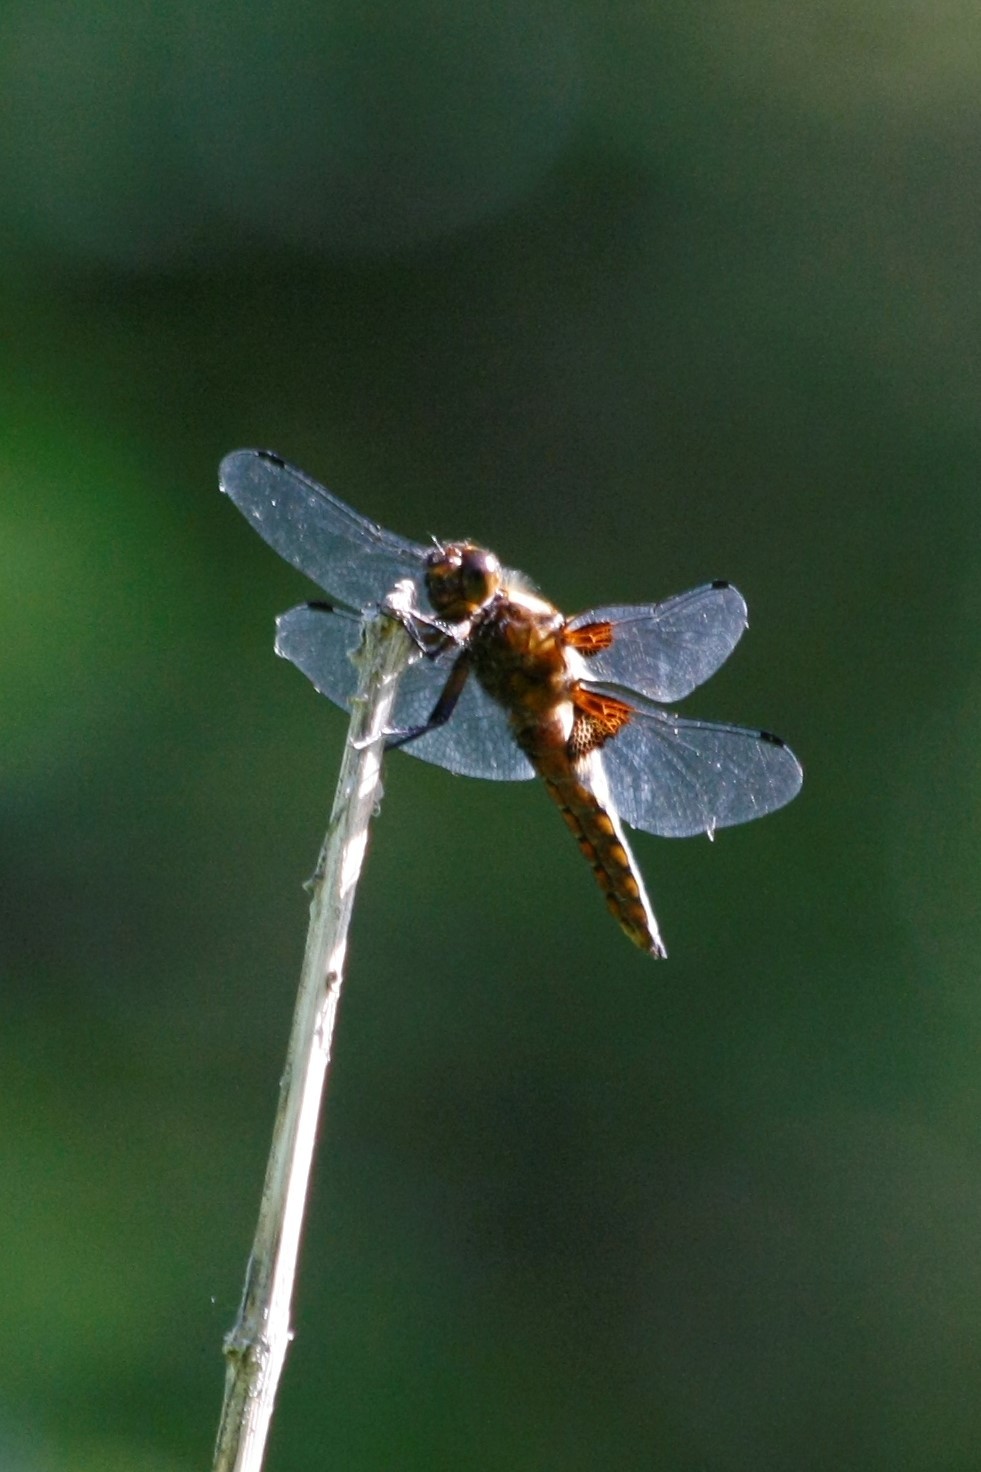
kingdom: Animalia
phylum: Arthropoda
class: Insecta
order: Odonata
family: Libellulidae
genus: Libellula
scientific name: Libellula depressa
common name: Broad-bodied chaser
